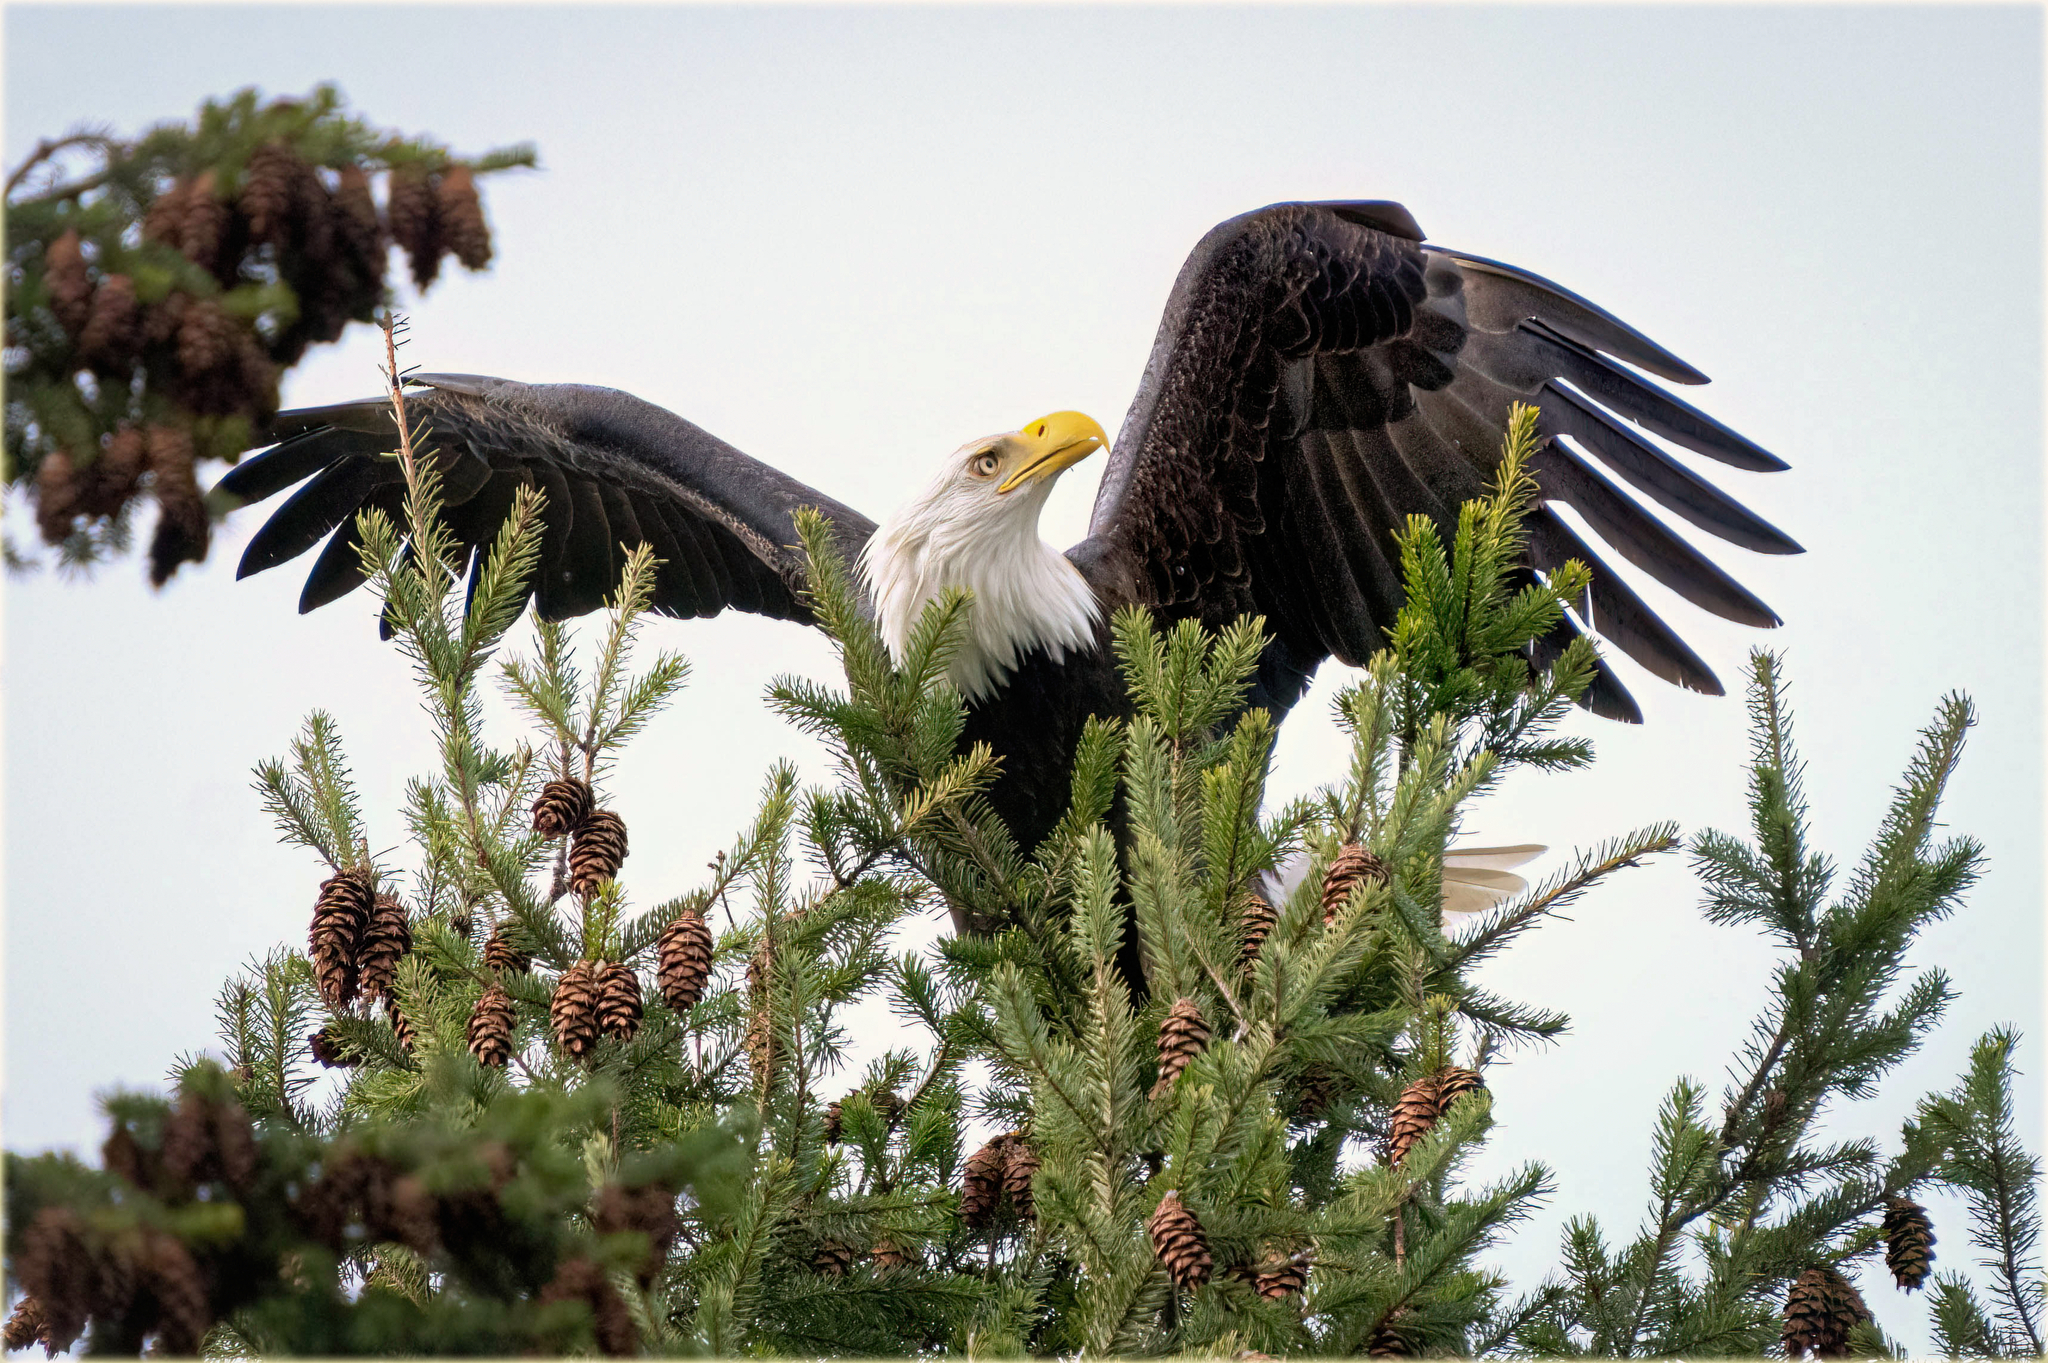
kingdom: Animalia
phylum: Chordata
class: Aves
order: Accipitriformes
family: Accipitridae
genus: Haliaeetus
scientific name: Haliaeetus leucocephalus
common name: Bald eagle
